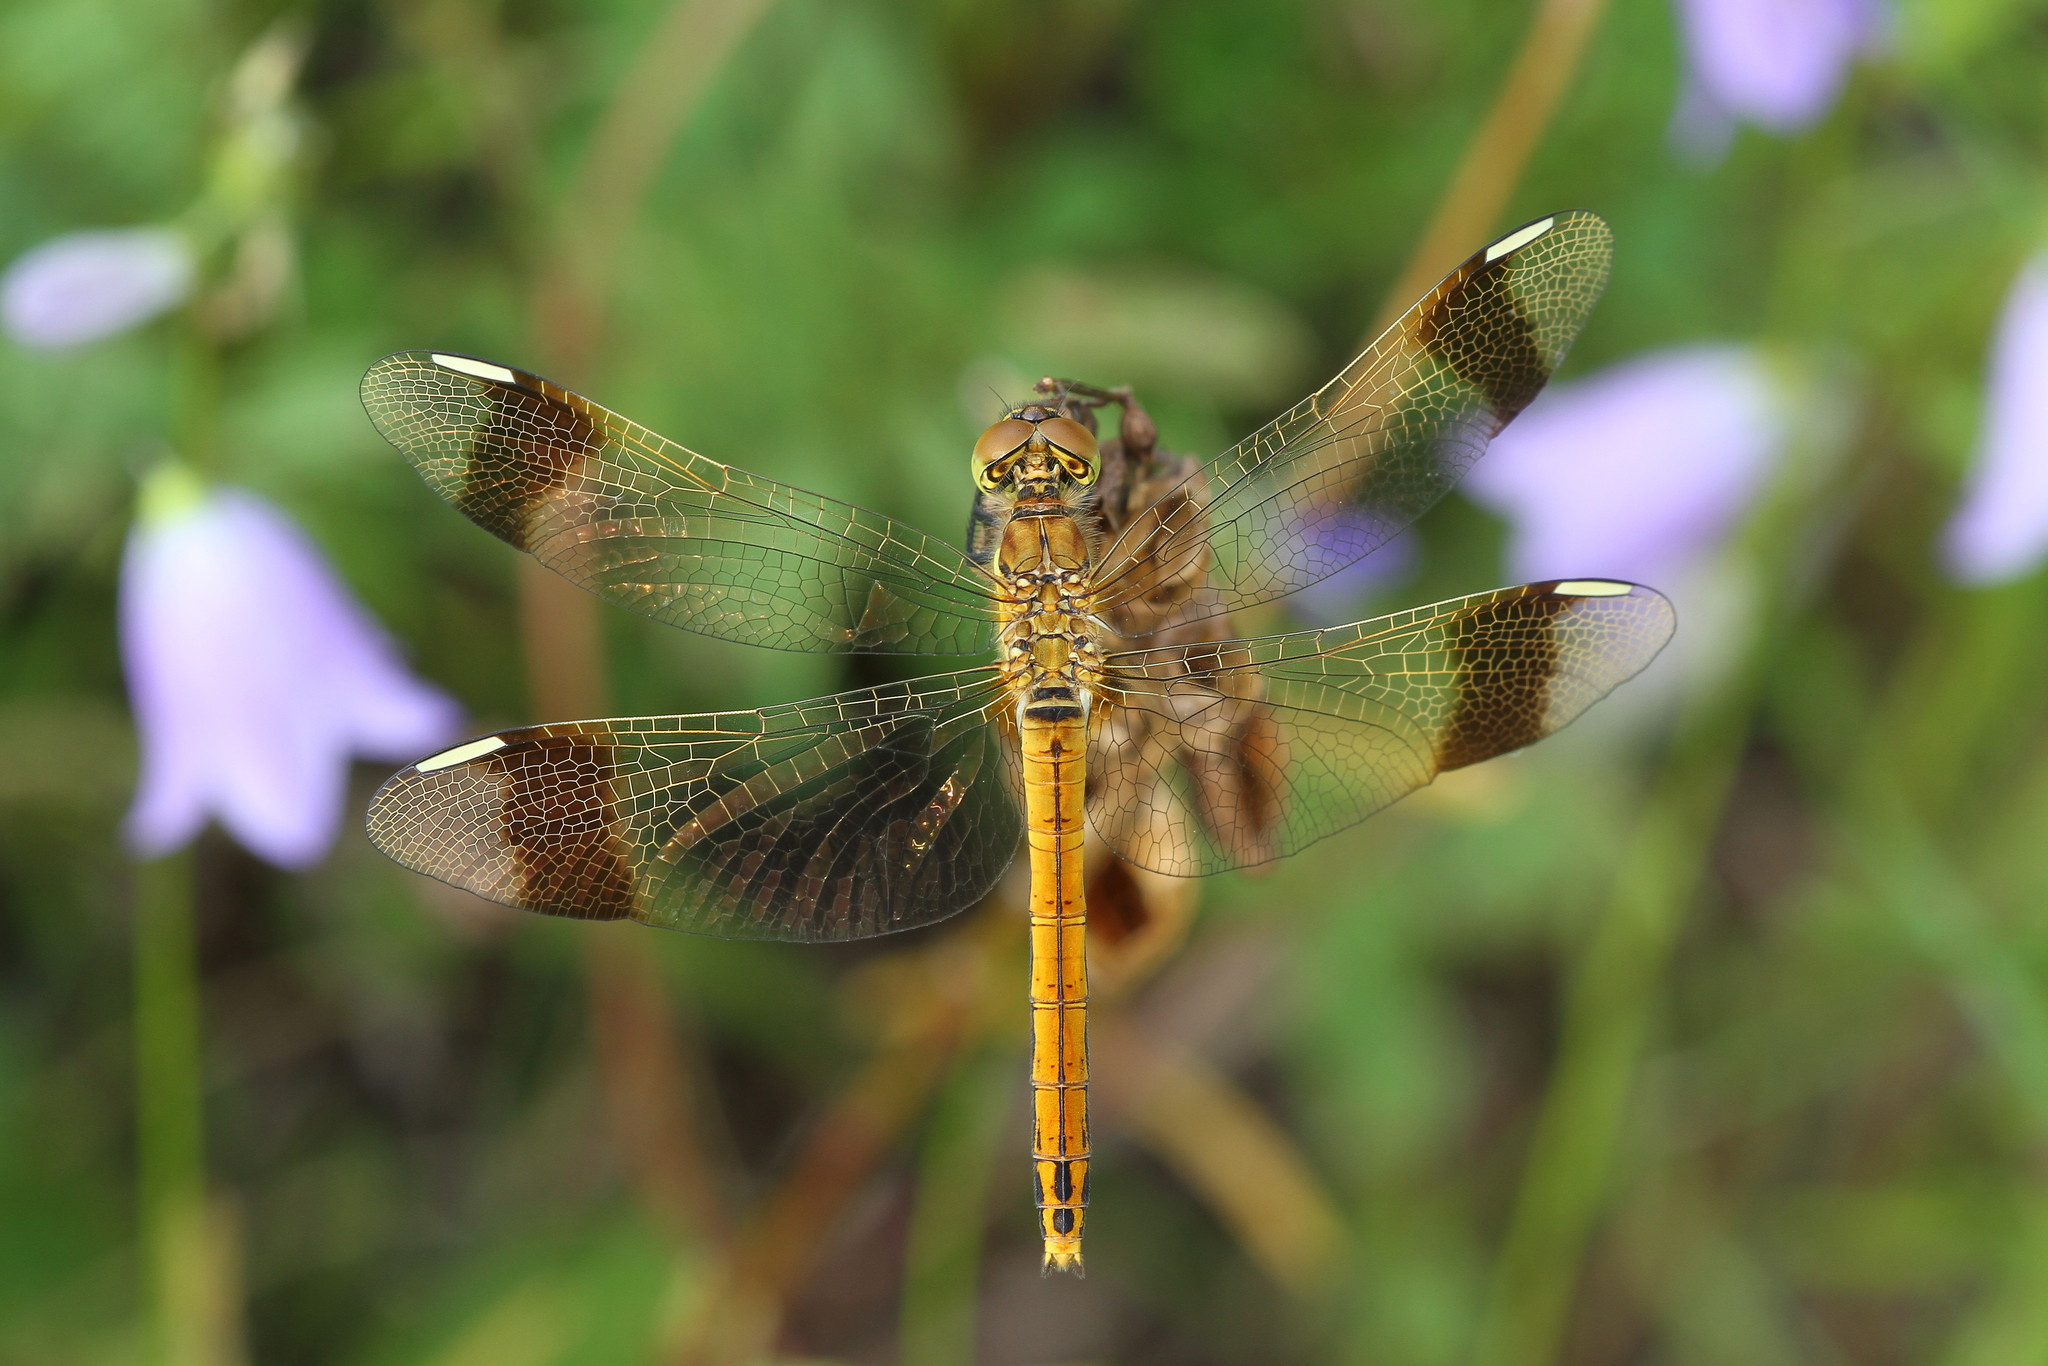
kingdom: Animalia
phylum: Arthropoda
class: Insecta
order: Odonata
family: Libellulidae
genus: Sympetrum
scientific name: Sympetrum pedemontanum
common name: Banded darter
